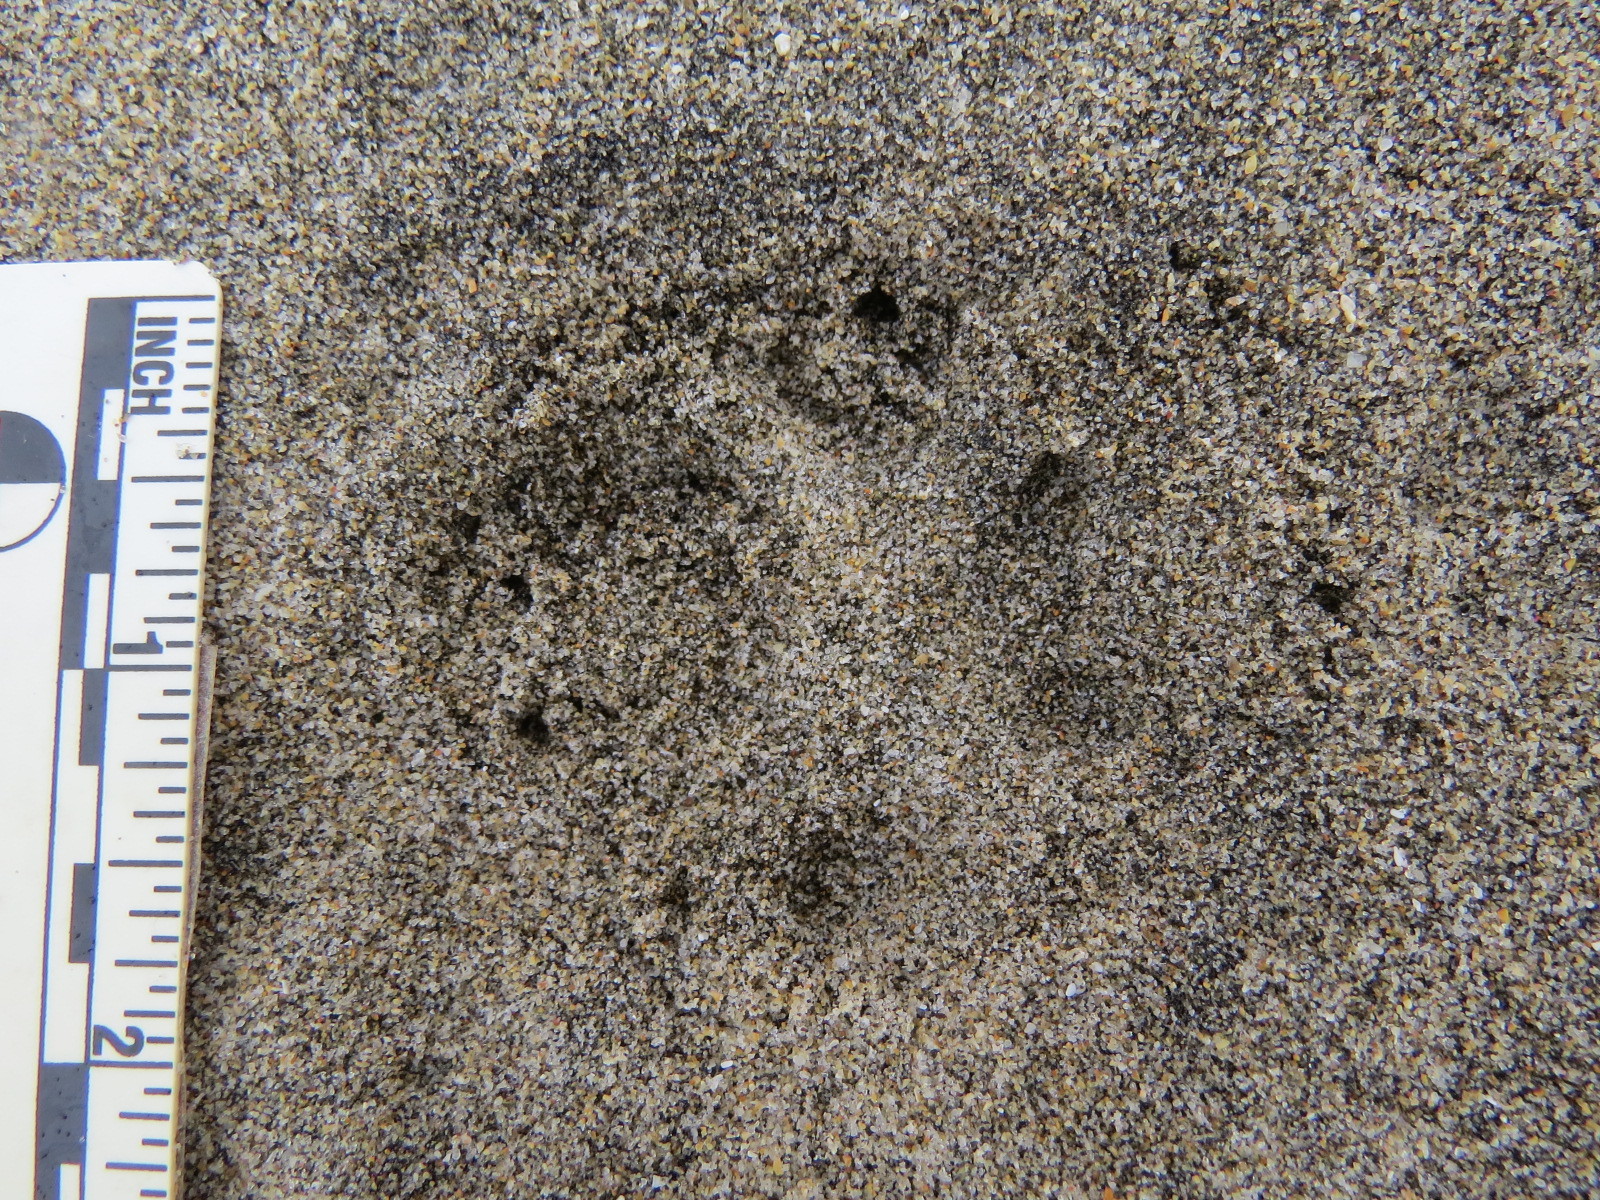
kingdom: Animalia
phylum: Chordata
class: Mammalia
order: Carnivora
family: Canidae
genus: Urocyon
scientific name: Urocyon cinereoargenteus
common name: Gray fox
